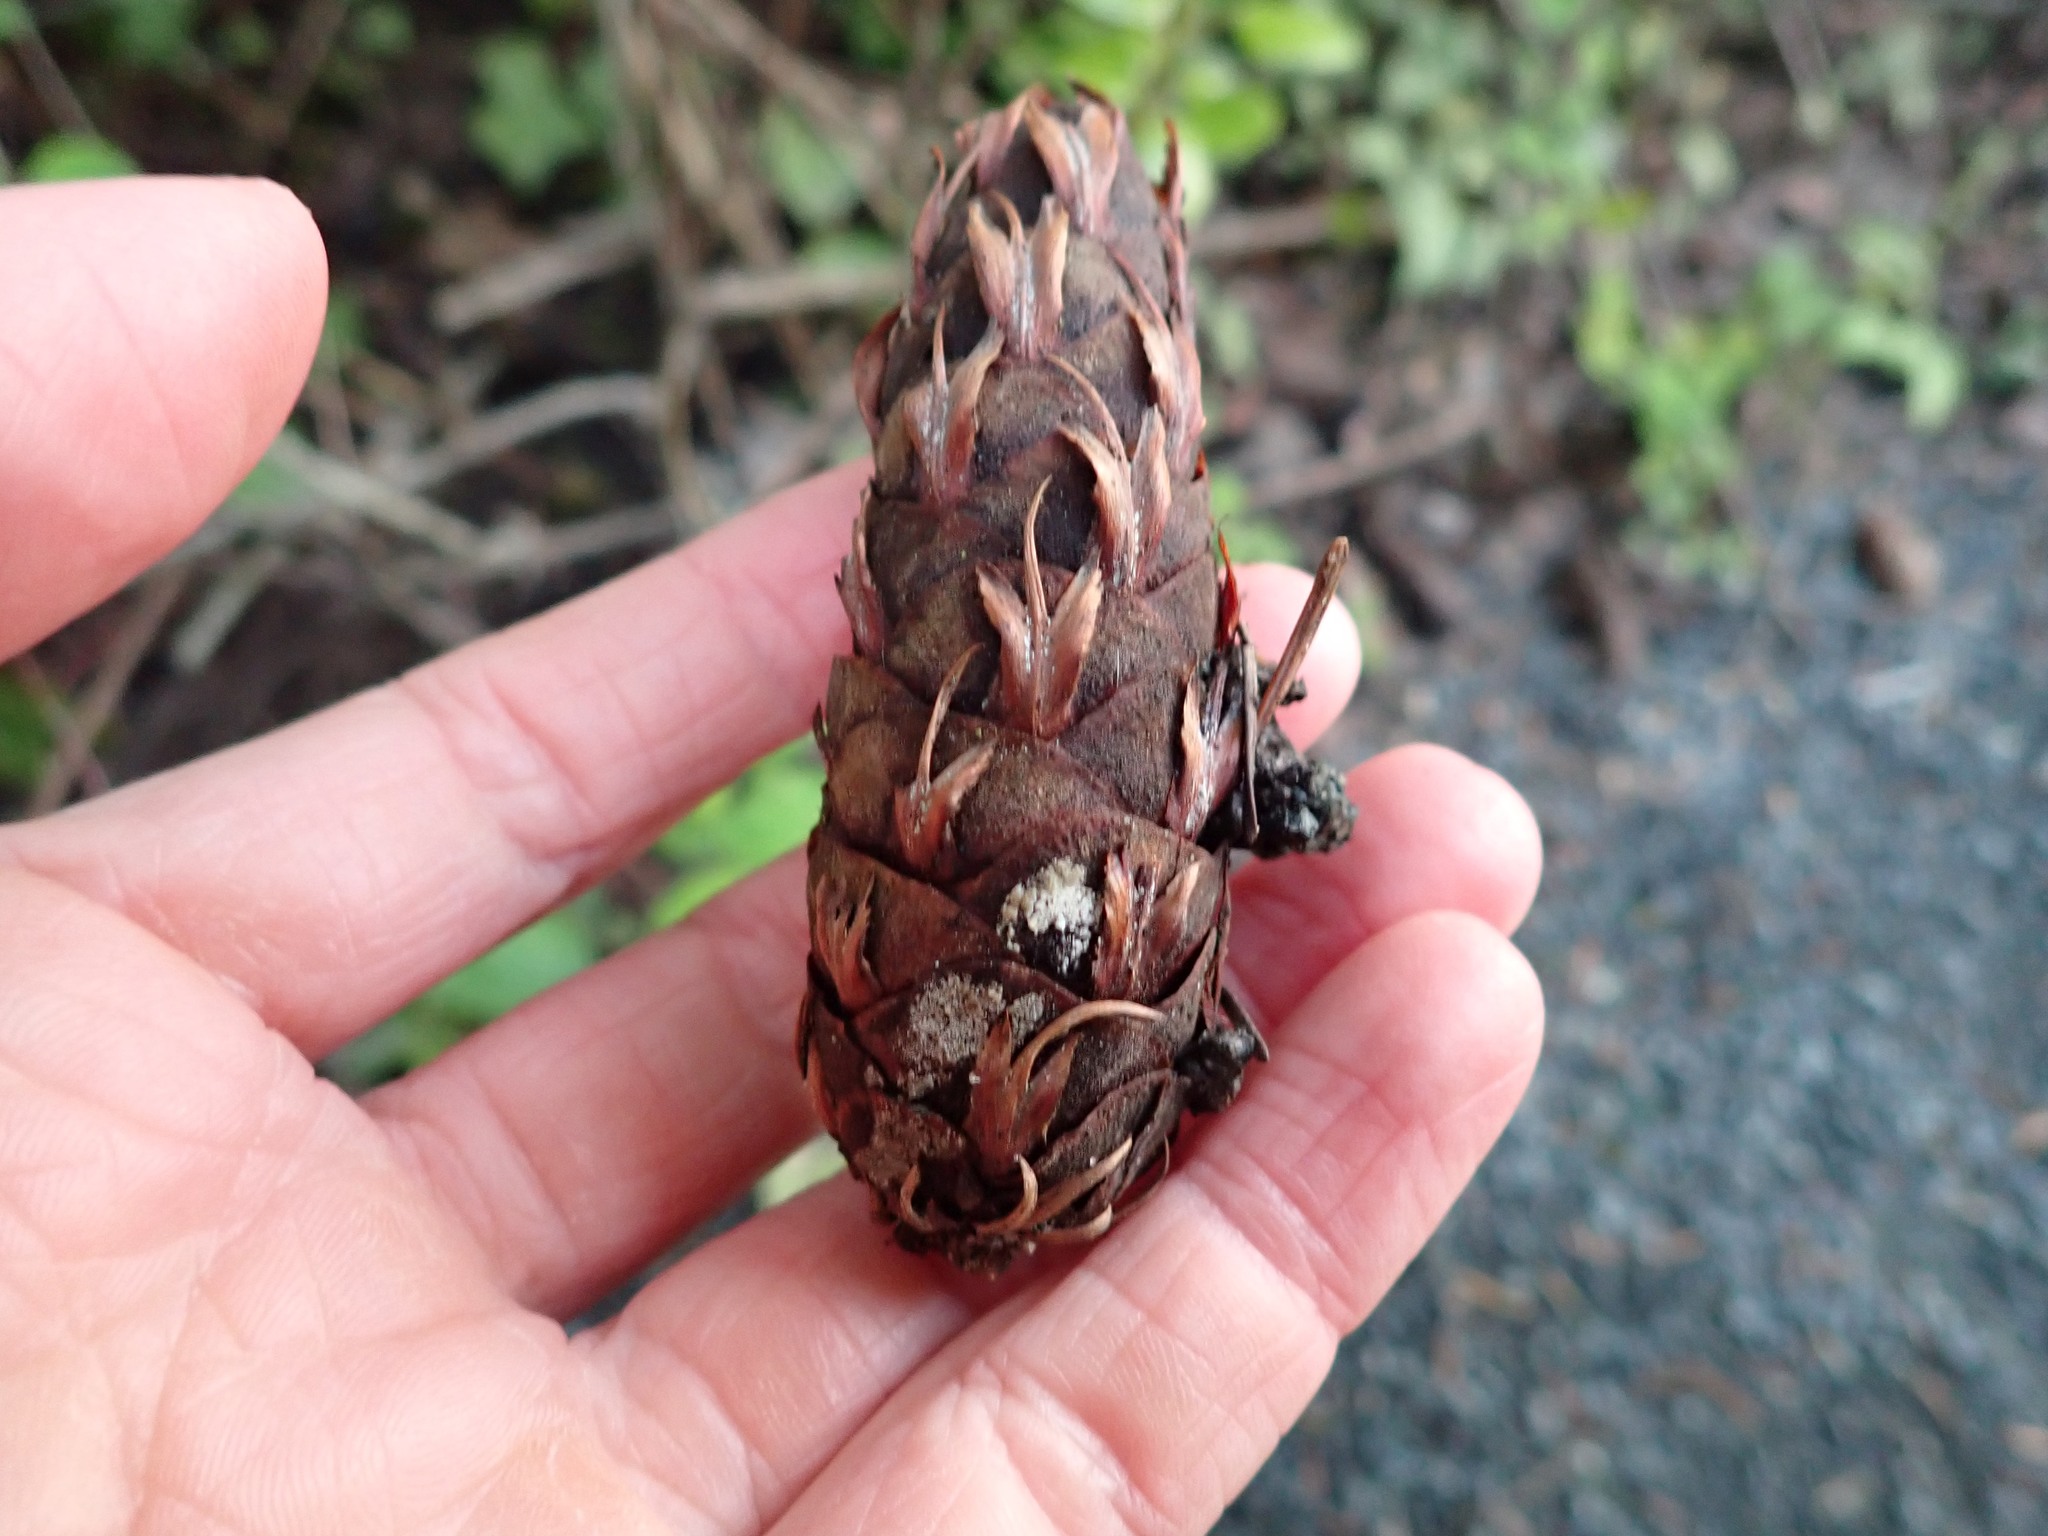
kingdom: Plantae
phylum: Tracheophyta
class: Pinopsida
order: Pinales
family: Pinaceae
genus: Pseudotsuga
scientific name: Pseudotsuga menziesii
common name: Douglas fir
